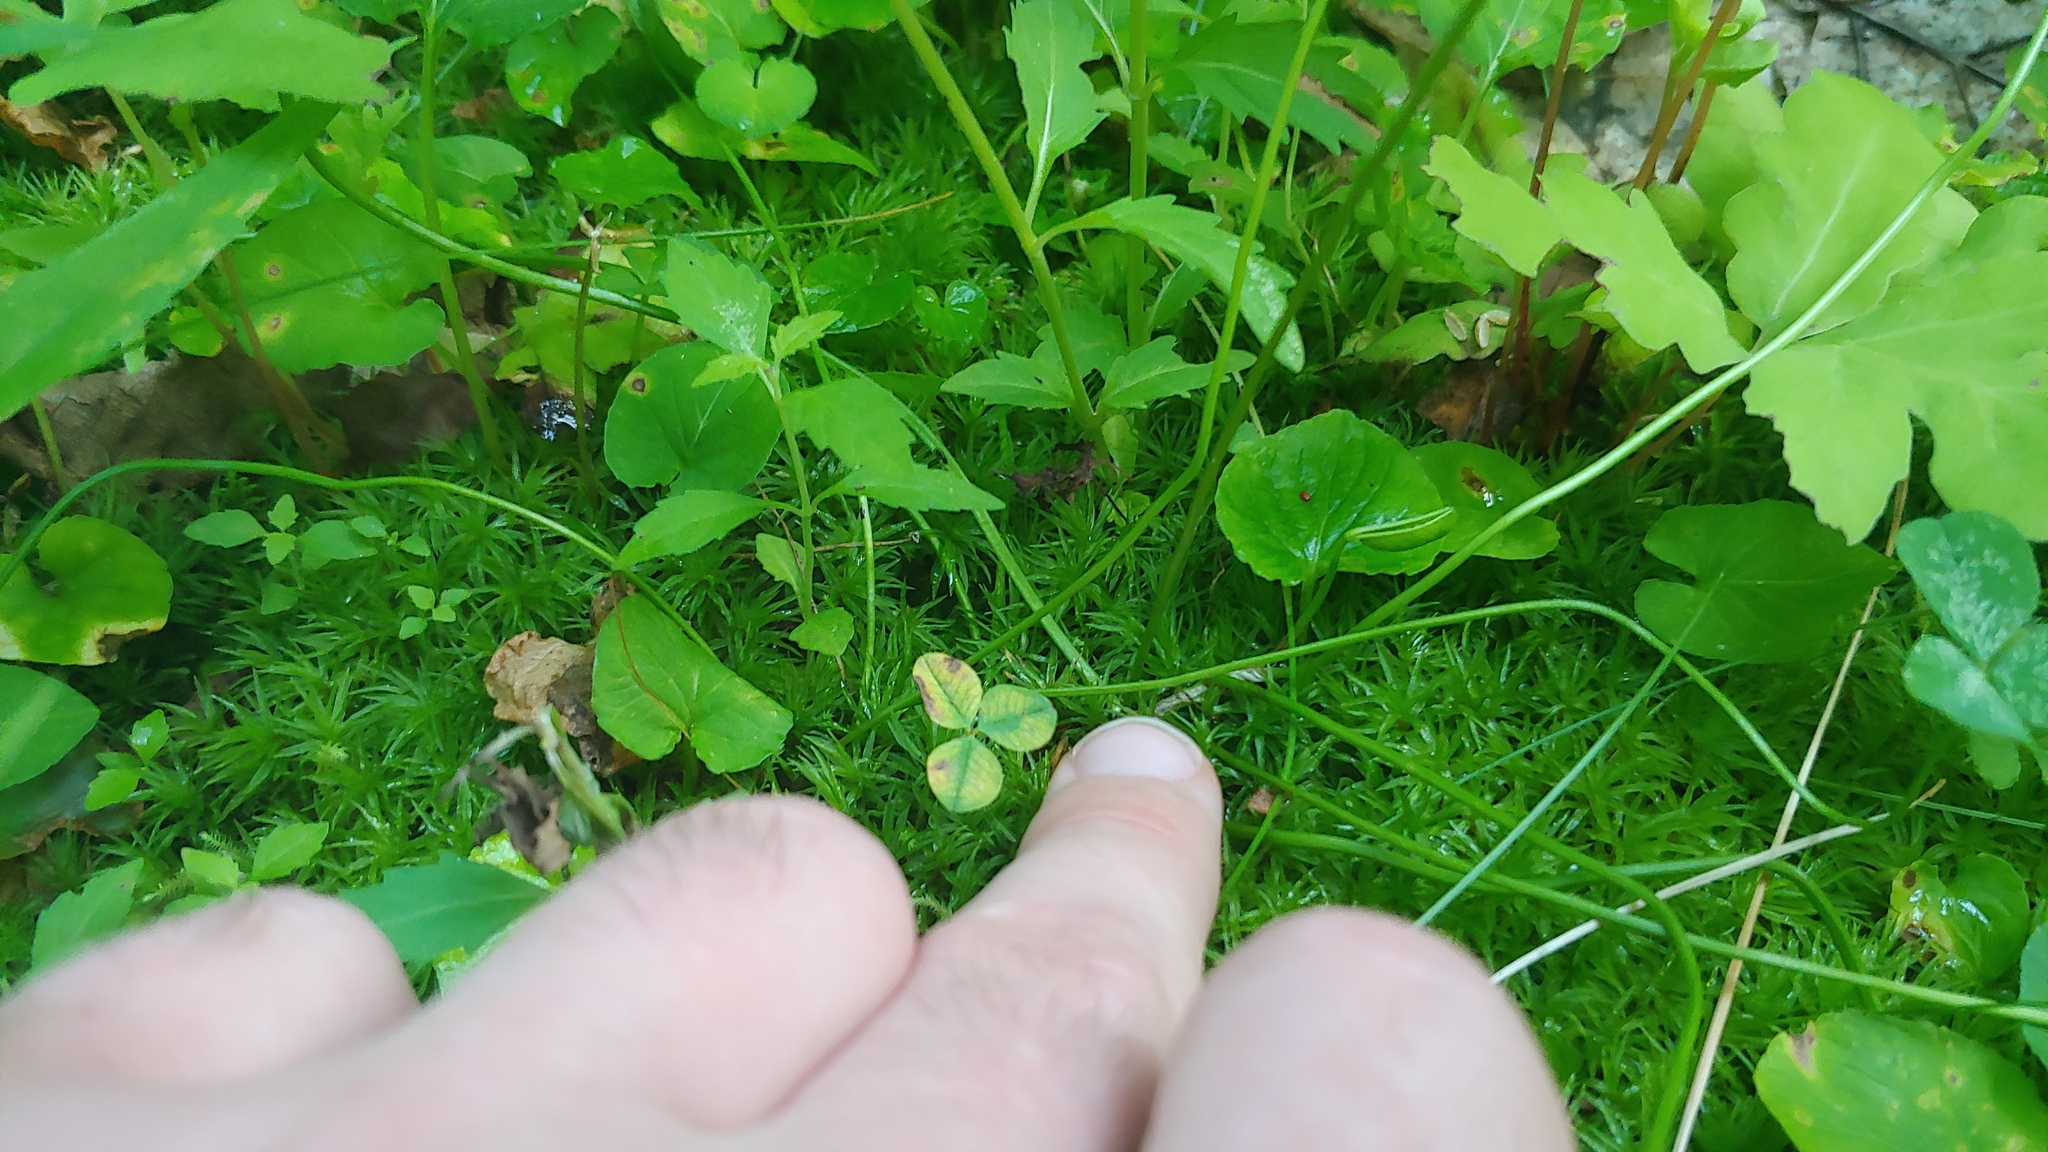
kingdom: Plantae
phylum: Tracheophyta
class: Magnoliopsida
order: Fabales
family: Fabaceae
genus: Trifolium
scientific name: Trifolium repens
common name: White clover
